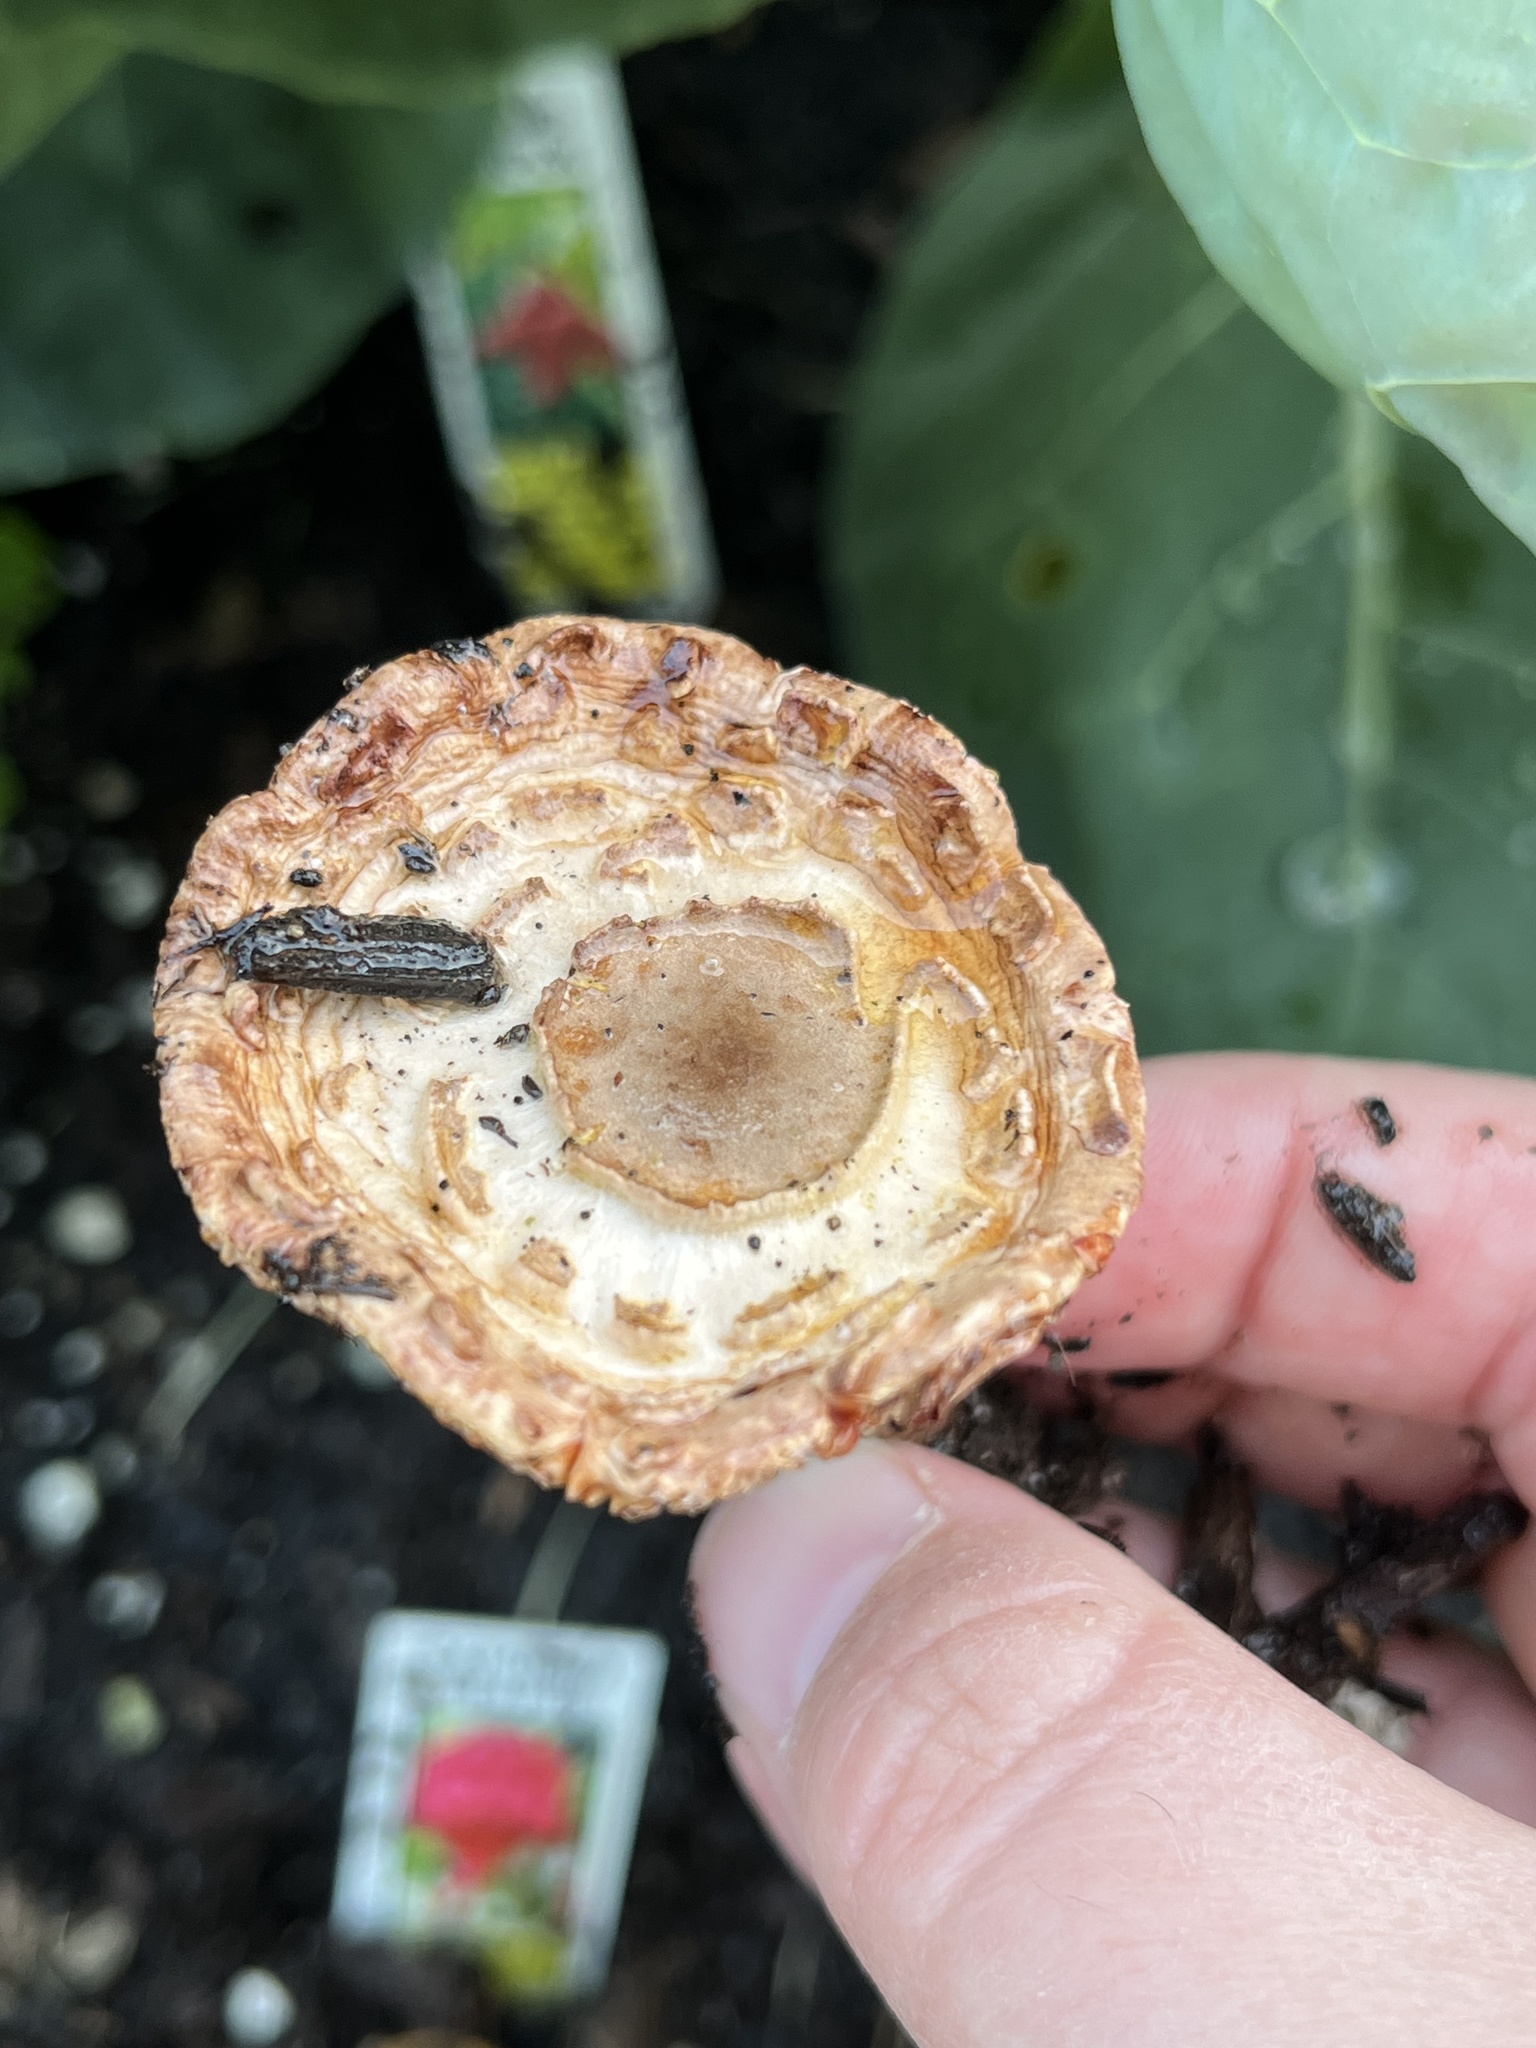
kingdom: Fungi
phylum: Basidiomycota
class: Agaricomycetes
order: Agaricales
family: Agaricaceae
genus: Leucoagaricus
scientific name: Leucoagaricus americanus
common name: Reddening lepiota
